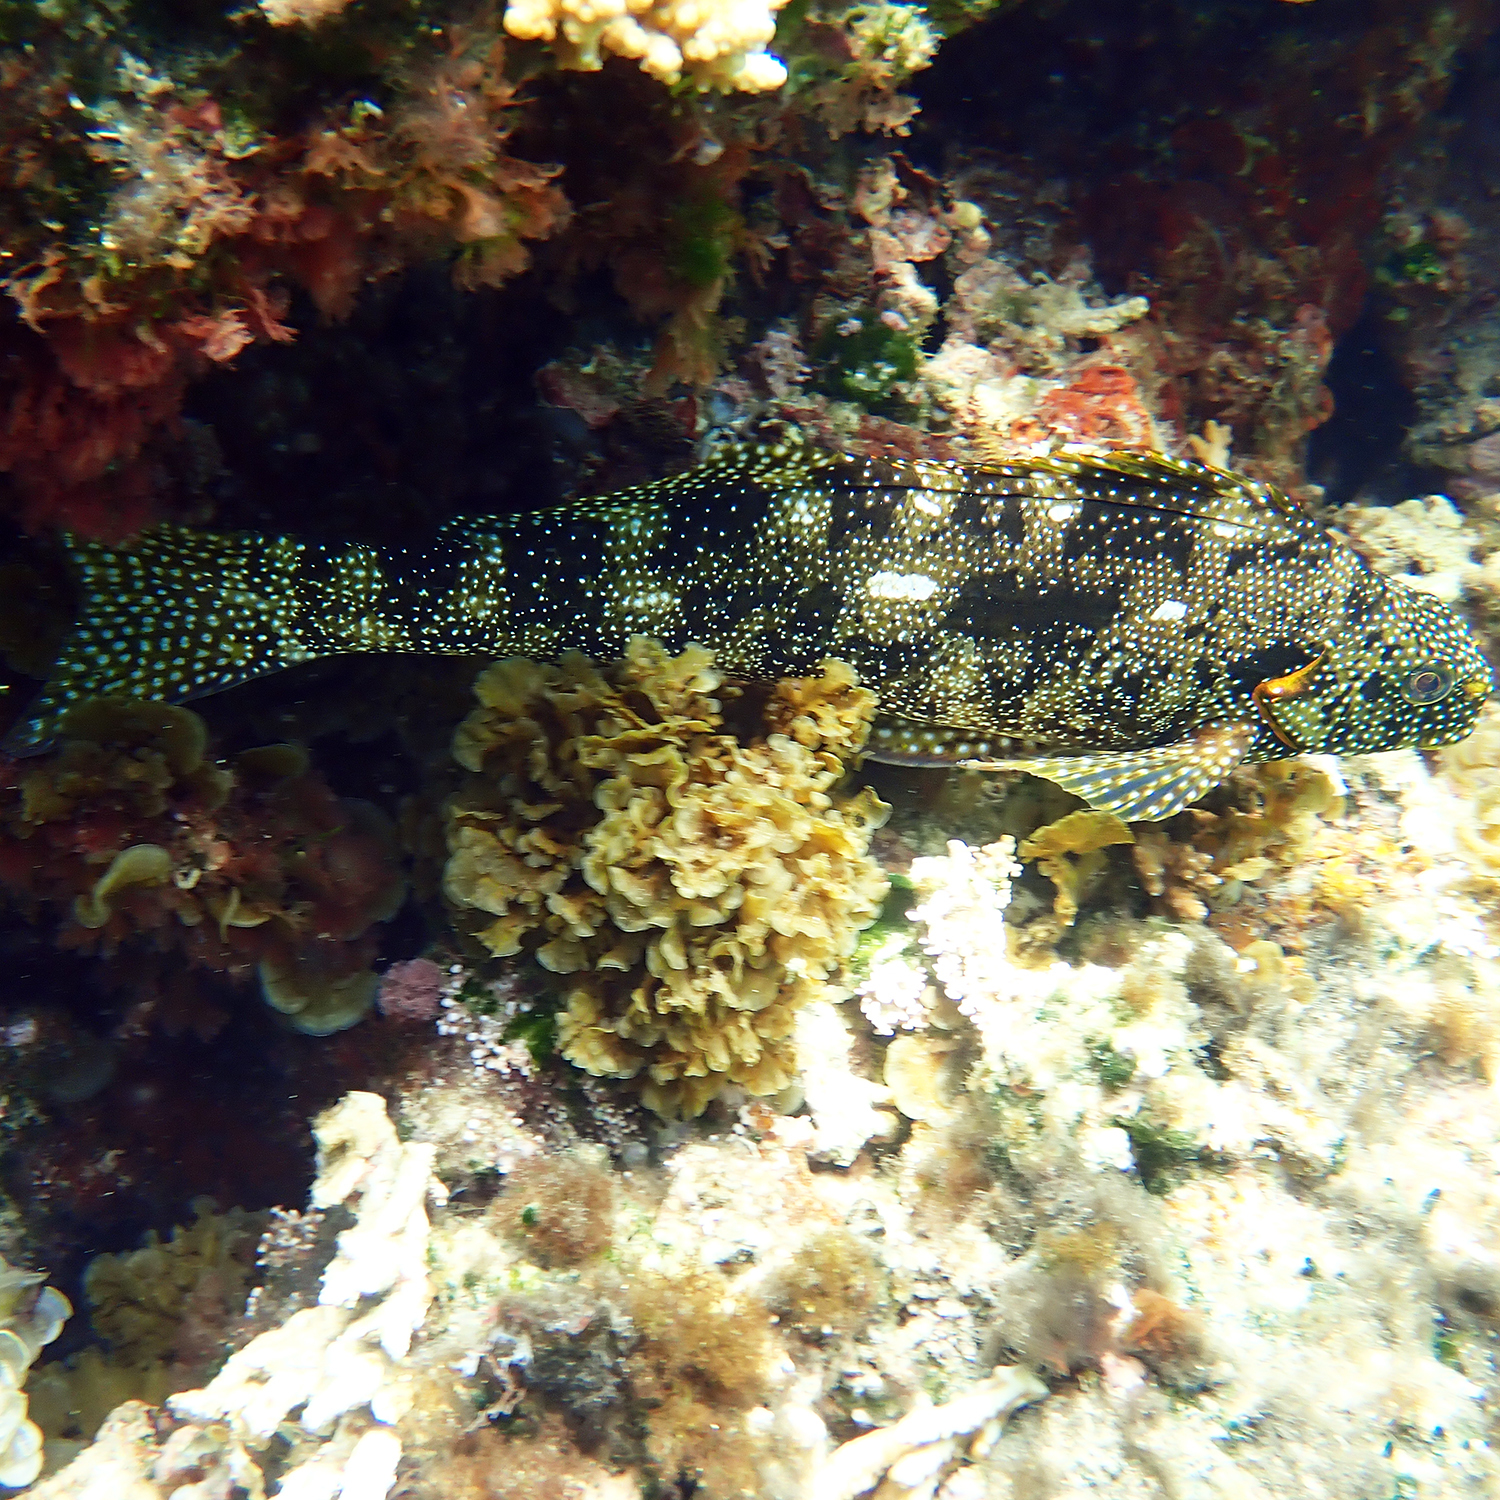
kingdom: Animalia
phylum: Chordata
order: Perciformes
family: Aplodactylidae
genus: Aplodactylus
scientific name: Aplodactylus etheridgii
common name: Notchheaded marblefish
